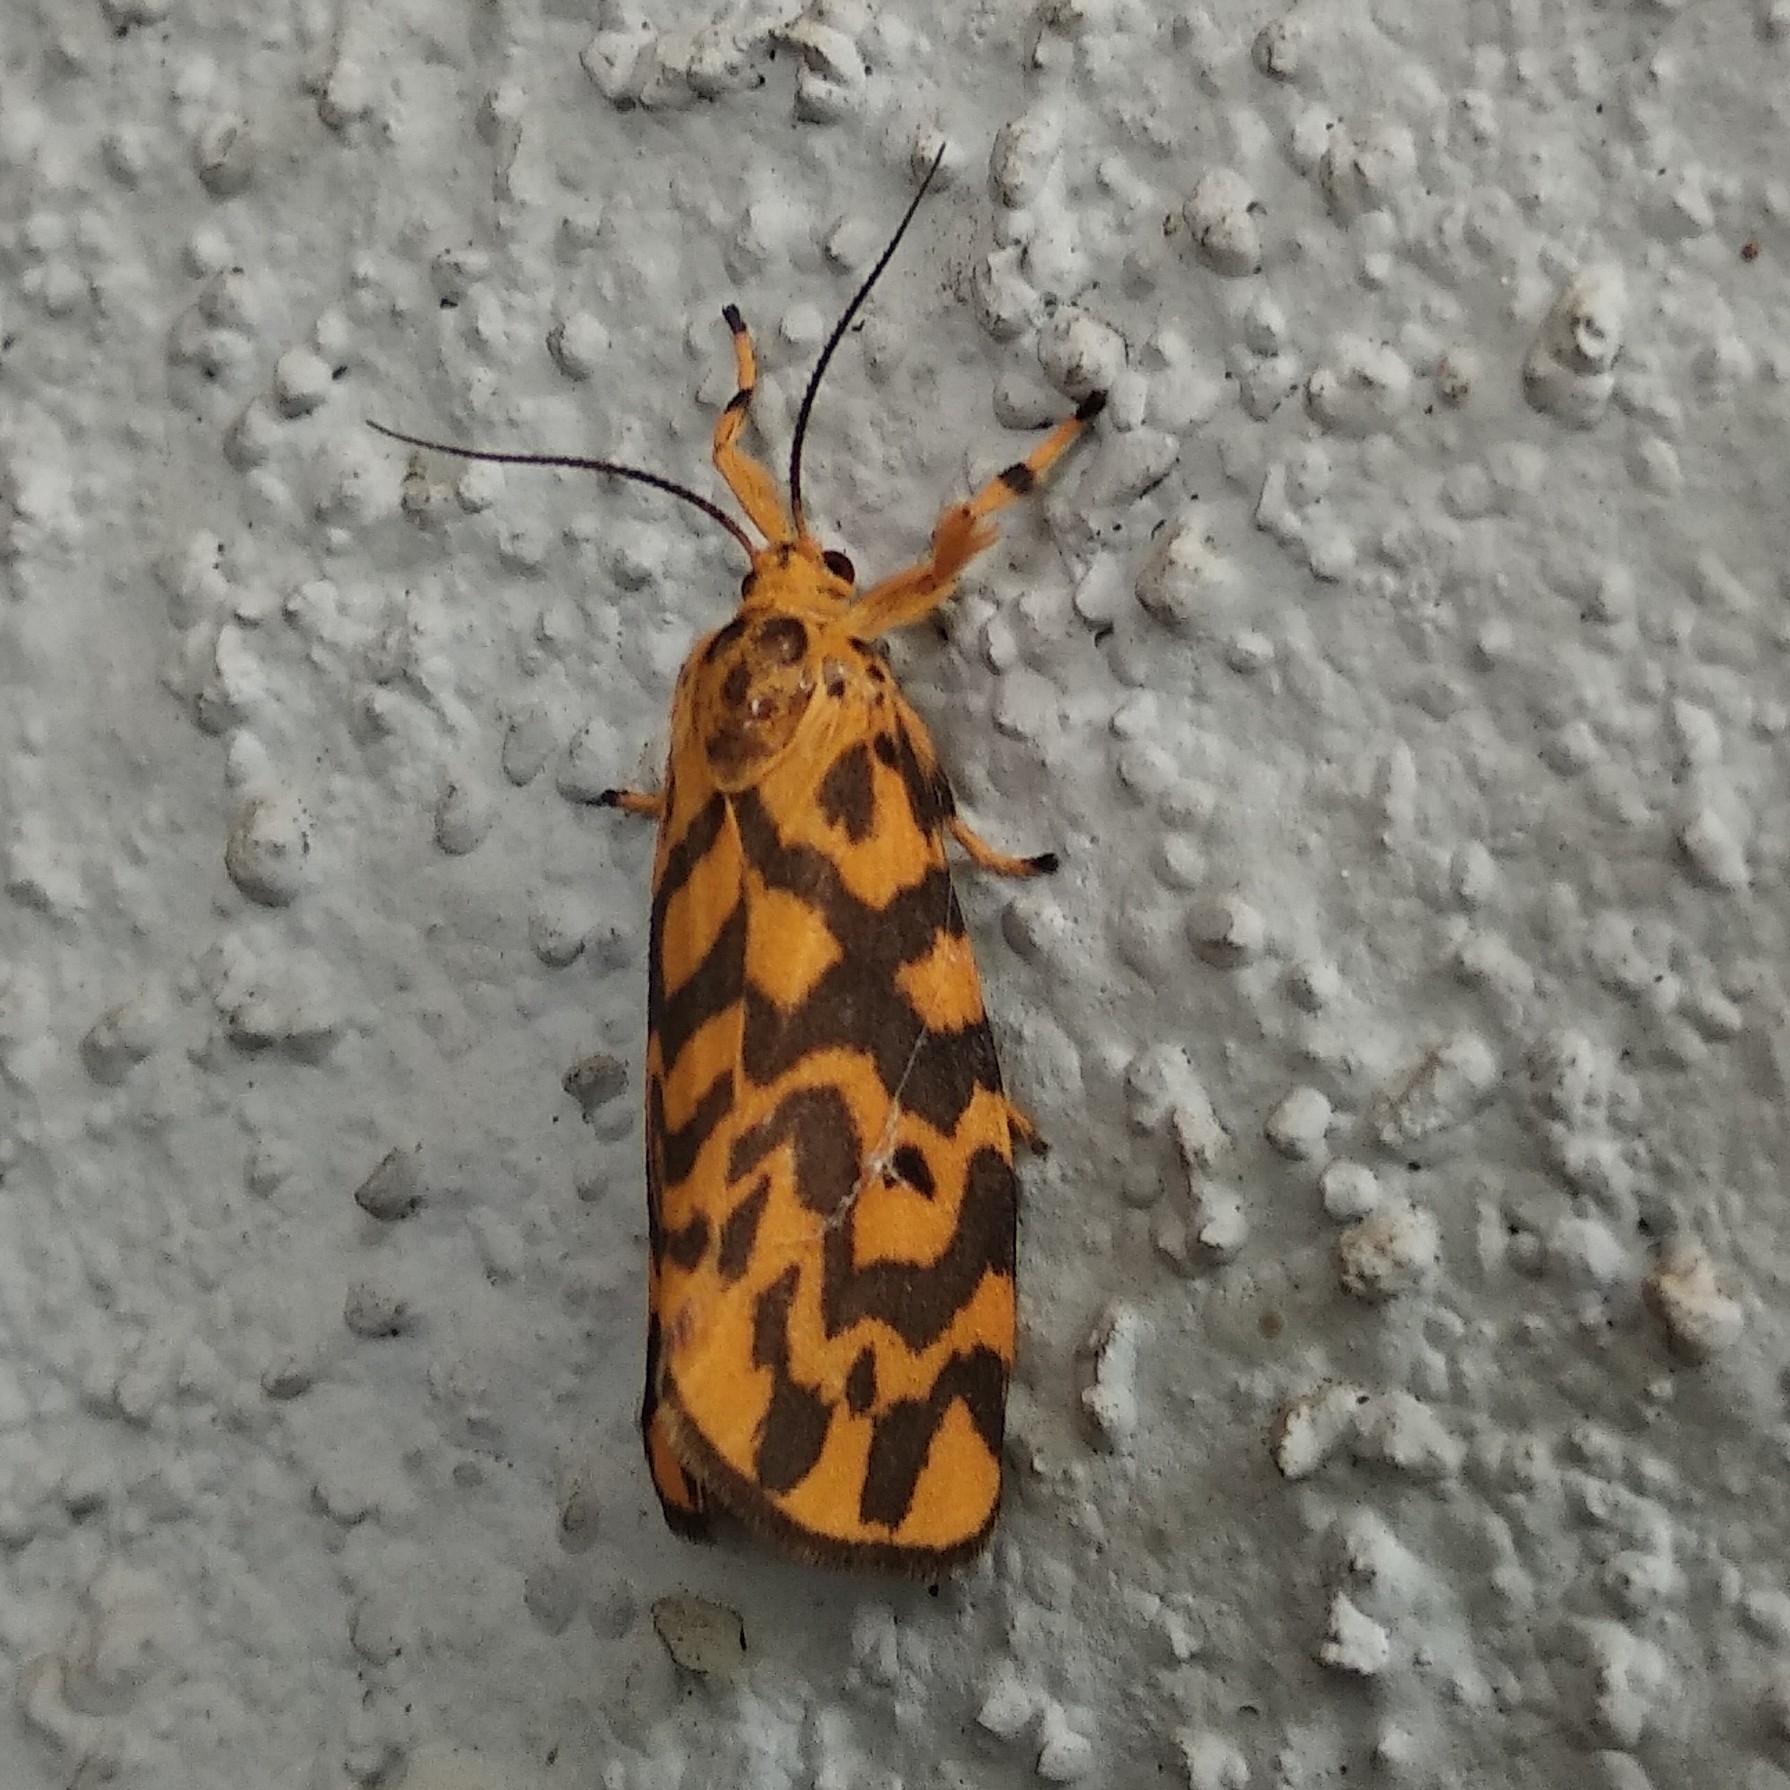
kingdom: Animalia
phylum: Arthropoda
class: Insecta
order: Lepidoptera
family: Erebidae
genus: Nepita
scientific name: Nepita conferta
